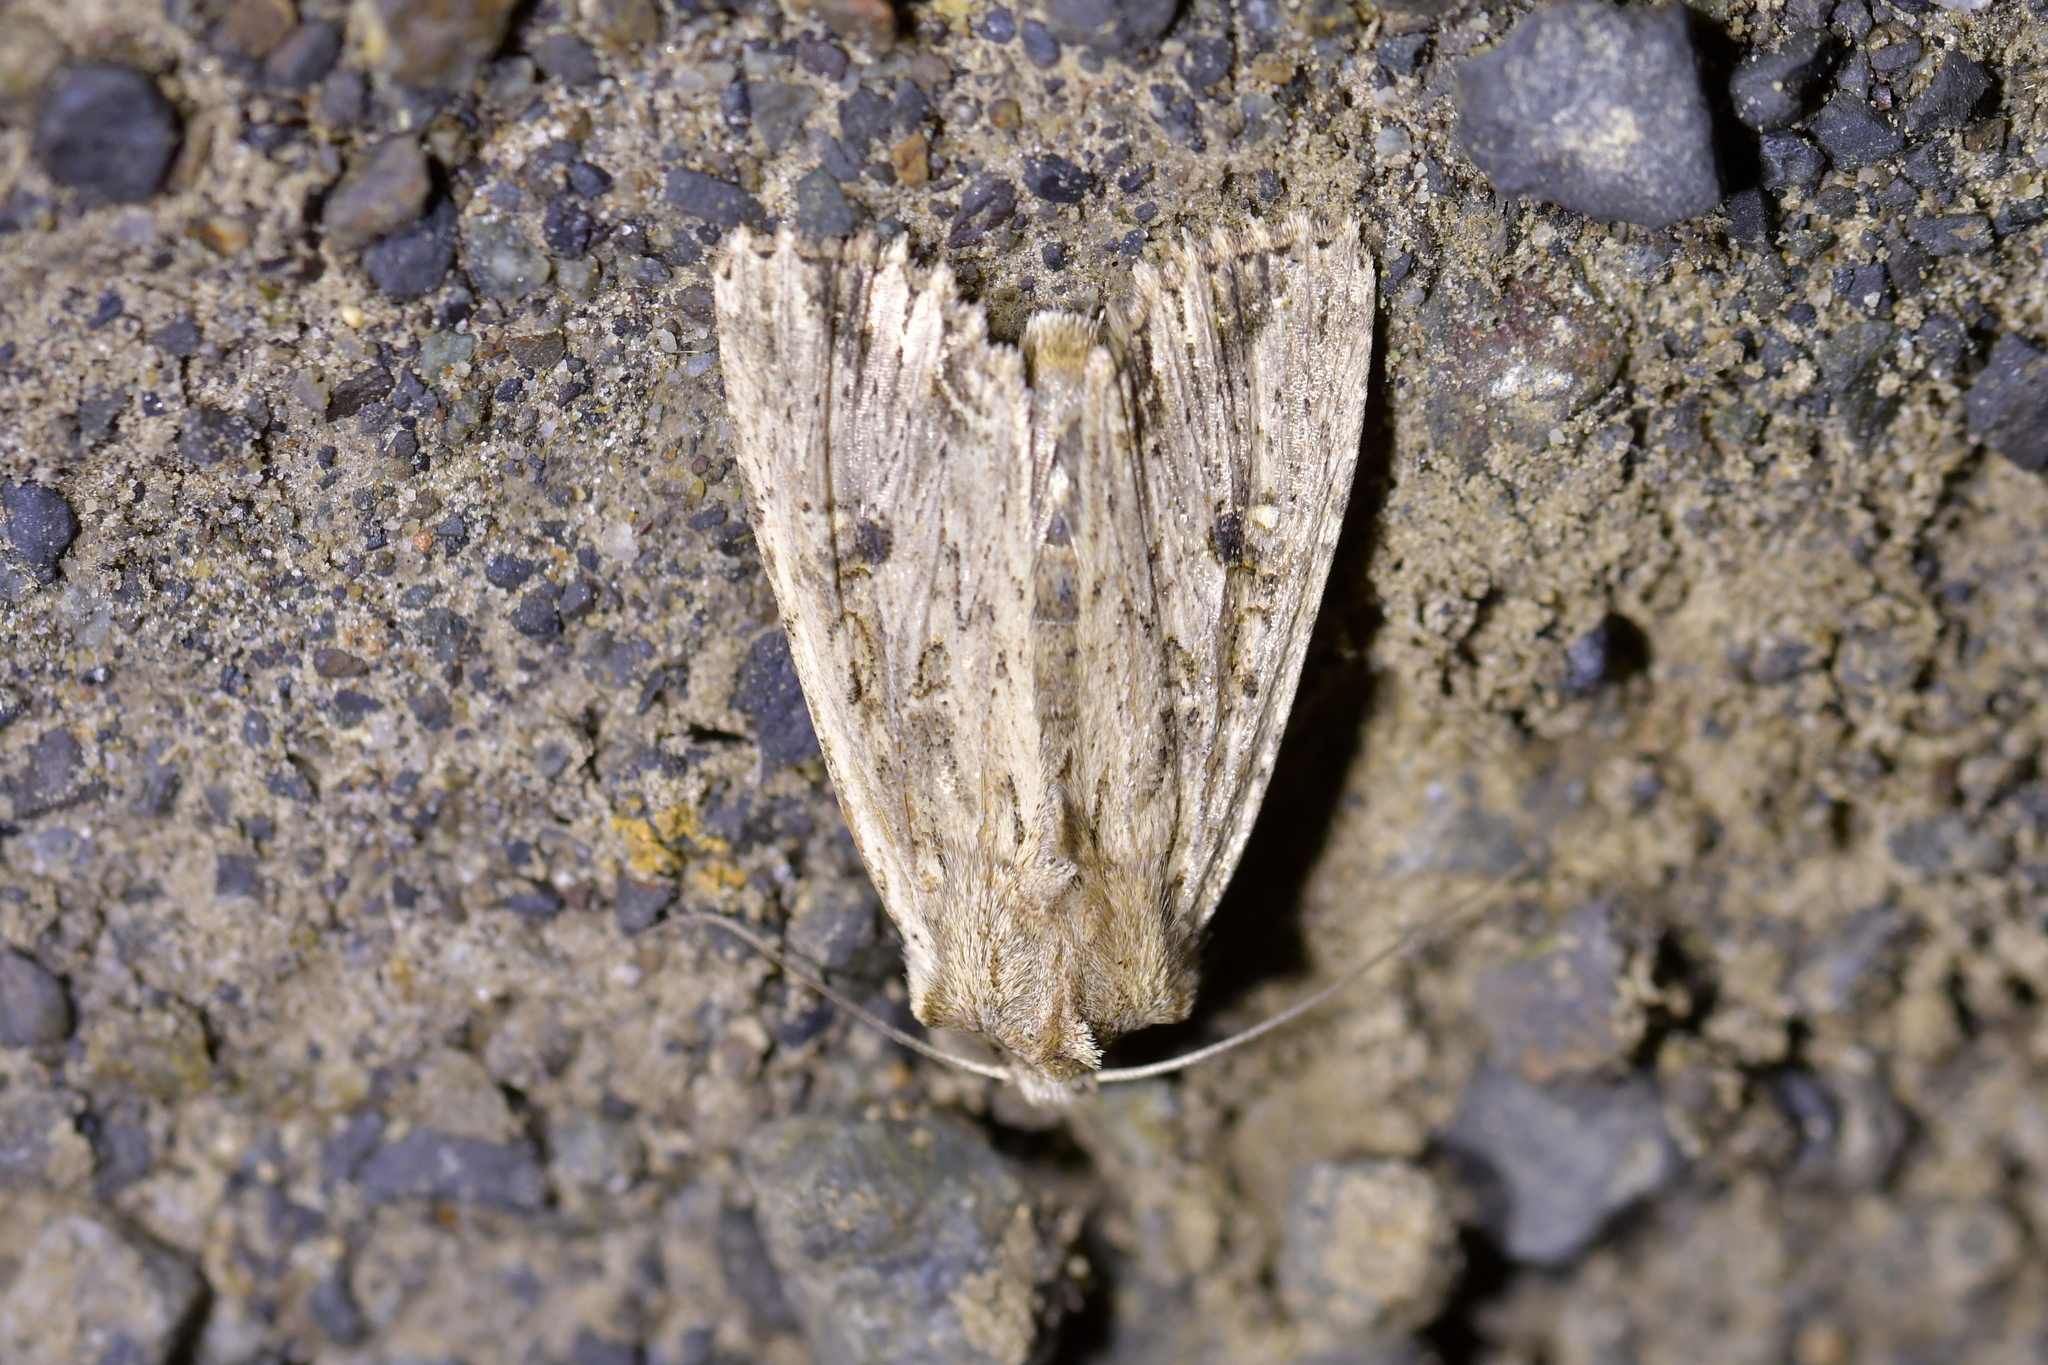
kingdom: Animalia
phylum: Arthropoda
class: Insecta
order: Lepidoptera
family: Noctuidae
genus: Ichneutica
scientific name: Ichneutica lignana
